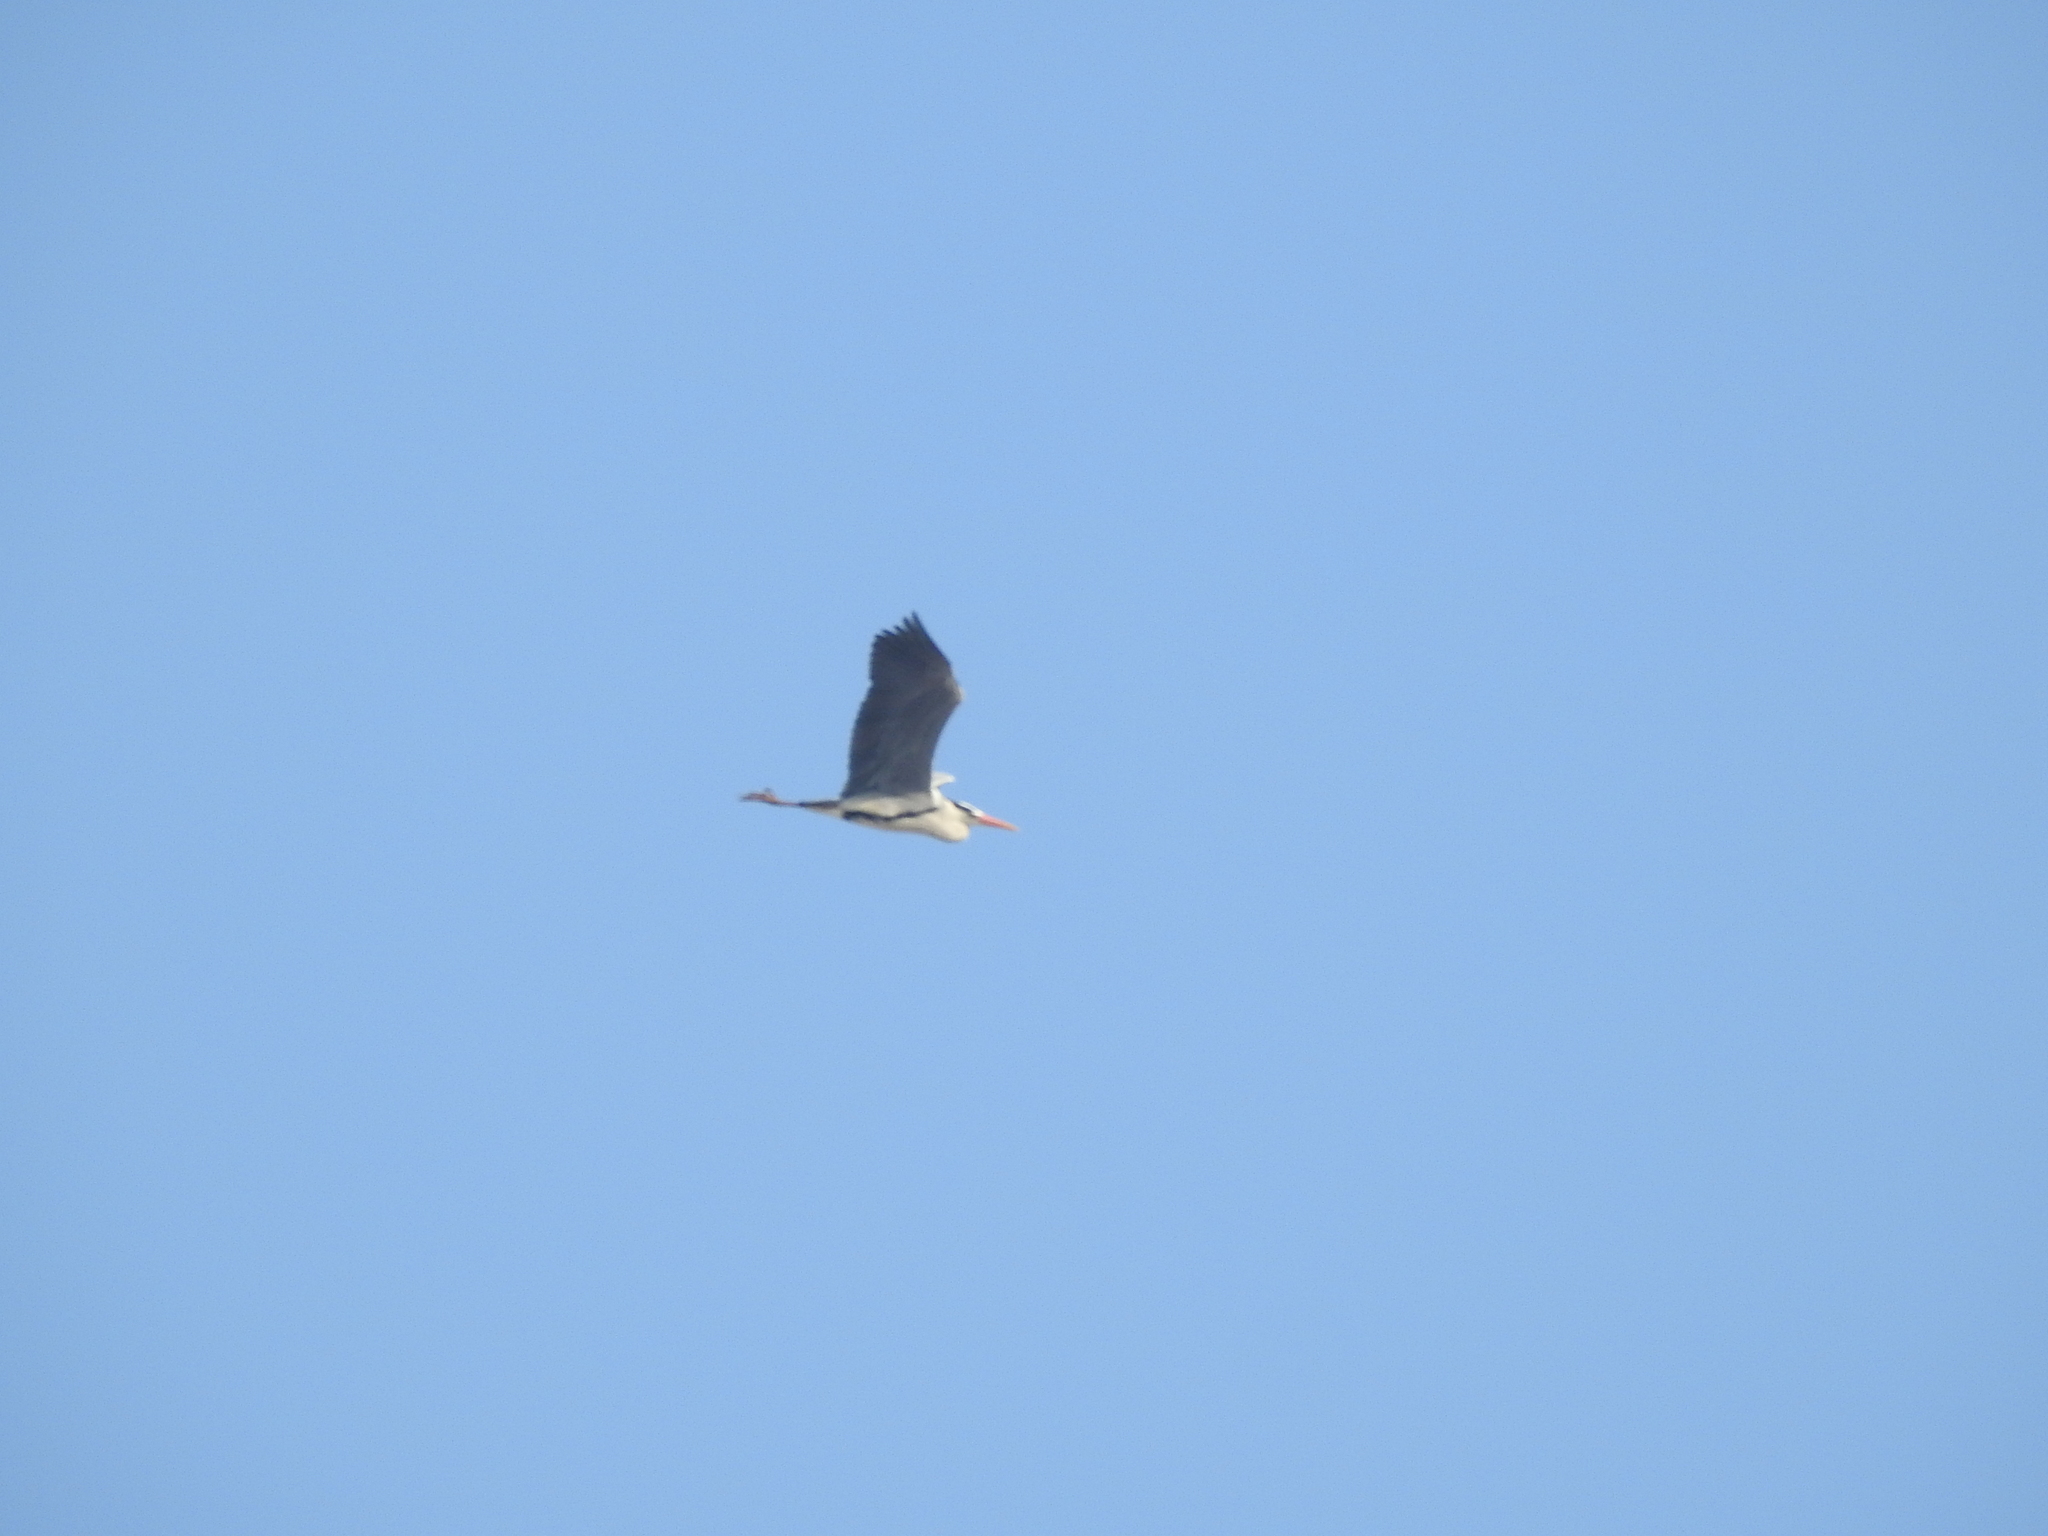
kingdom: Animalia
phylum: Chordata
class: Aves
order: Pelecaniformes
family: Ardeidae
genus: Ardea
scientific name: Ardea cinerea
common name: Grey heron
